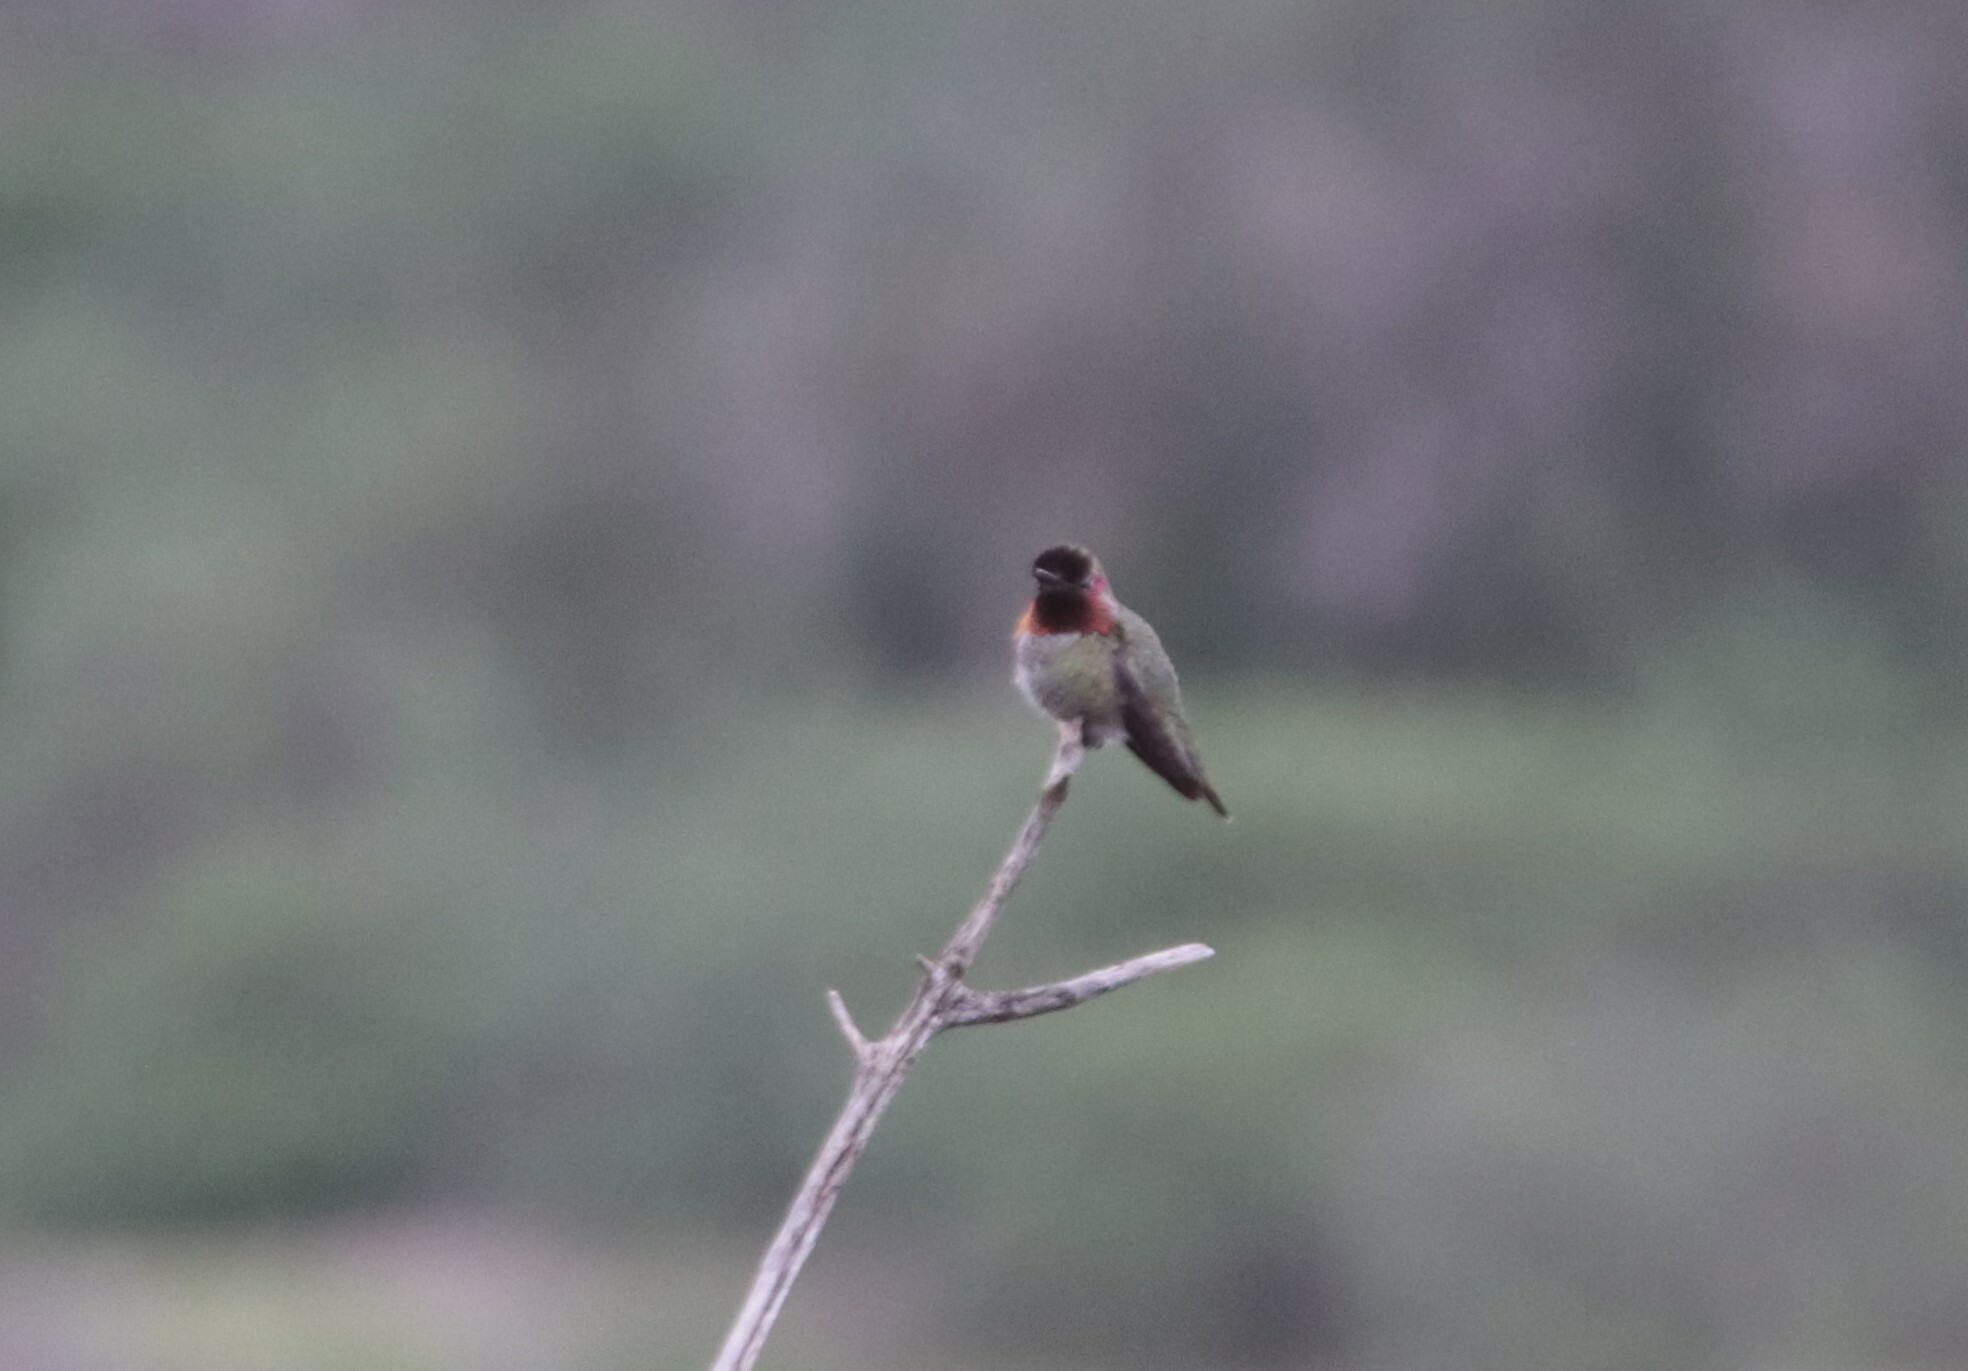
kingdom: Animalia
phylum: Chordata
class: Aves
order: Apodiformes
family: Trochilidae
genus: Calypte
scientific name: Calypte anna
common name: Anna's hummingbird
